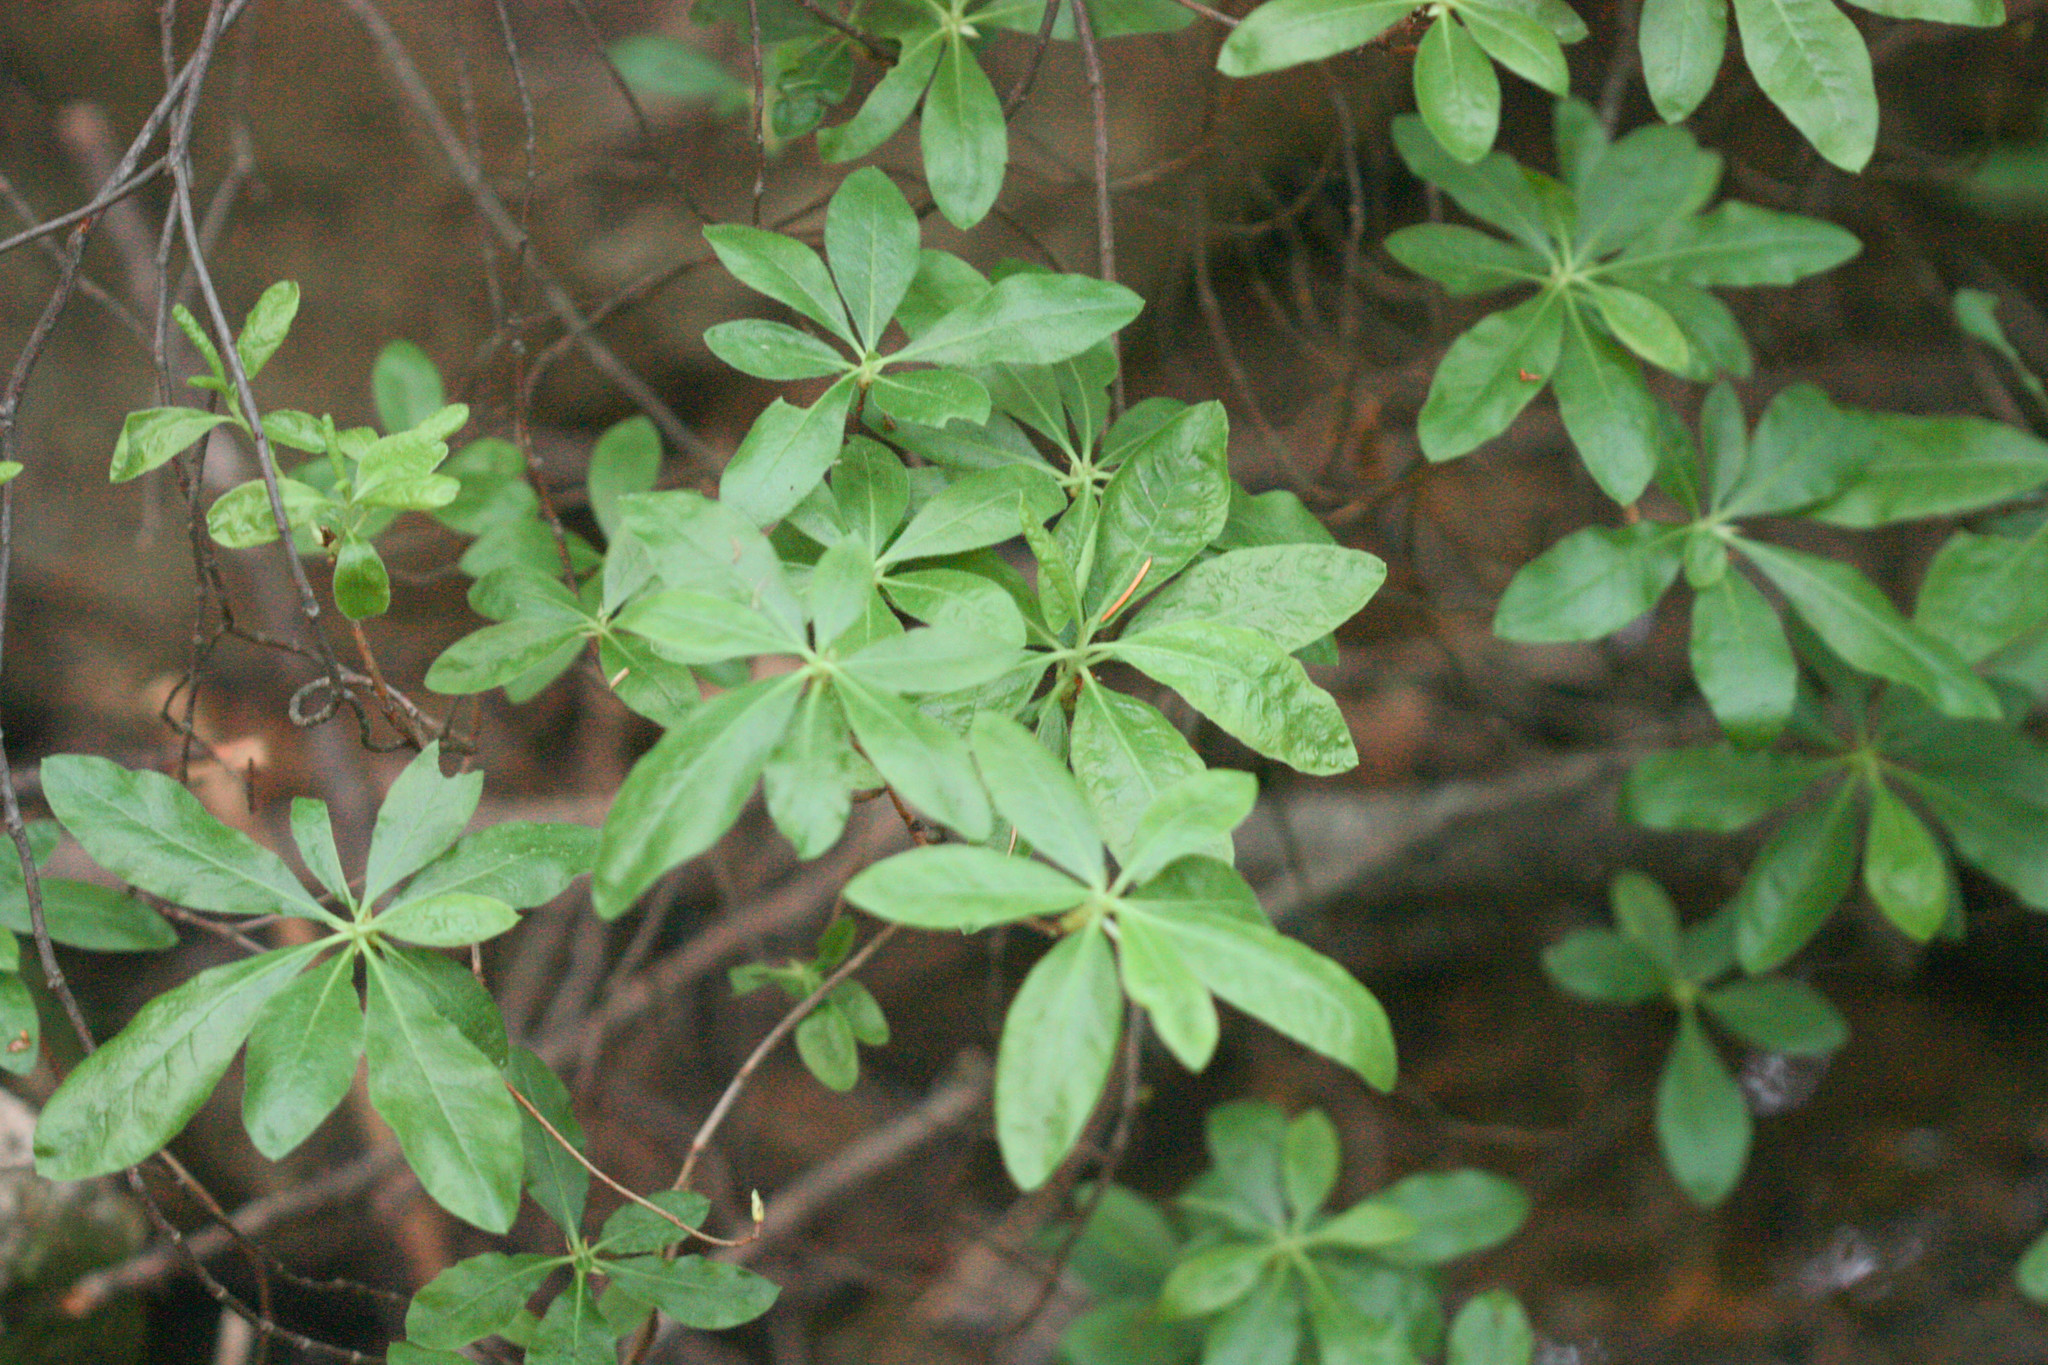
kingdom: Plantae
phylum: Tracheophyta
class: Magnoliopsida
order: Ericales
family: Ericaceae
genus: Rhododendron
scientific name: Rhododendron occidentale
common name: Western azalea
